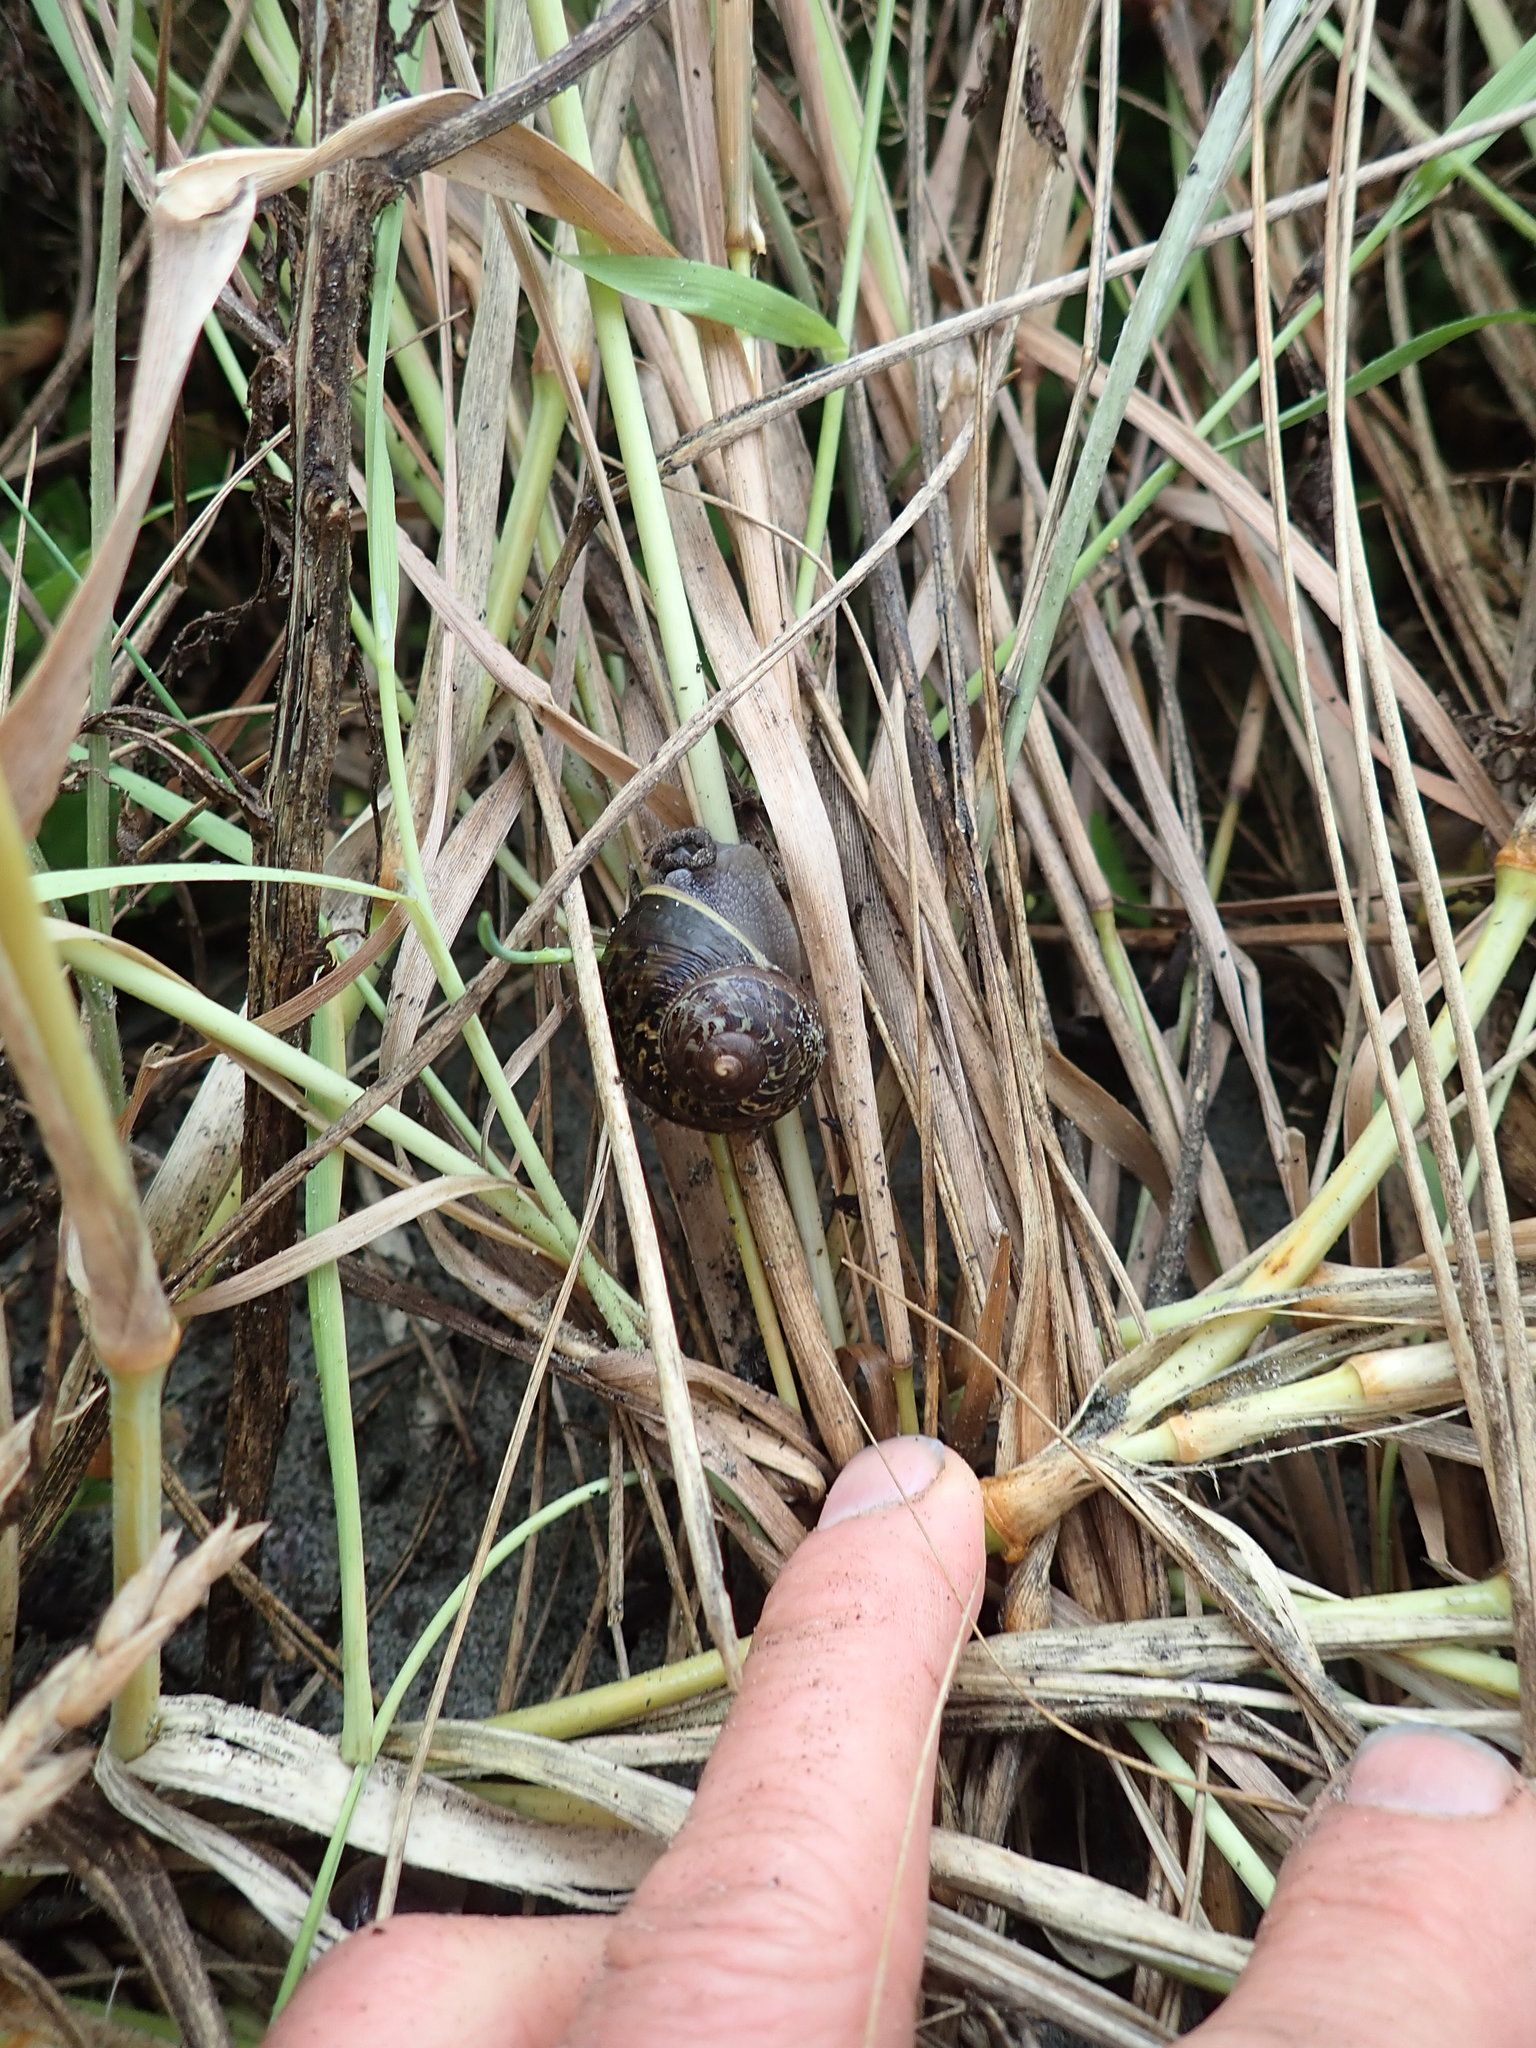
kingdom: Animalia
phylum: Mollusca
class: Gastropoda
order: Stylommatophora
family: Helicidae
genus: Cornu
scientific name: Cornu aspersum
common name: Brown garden snail
